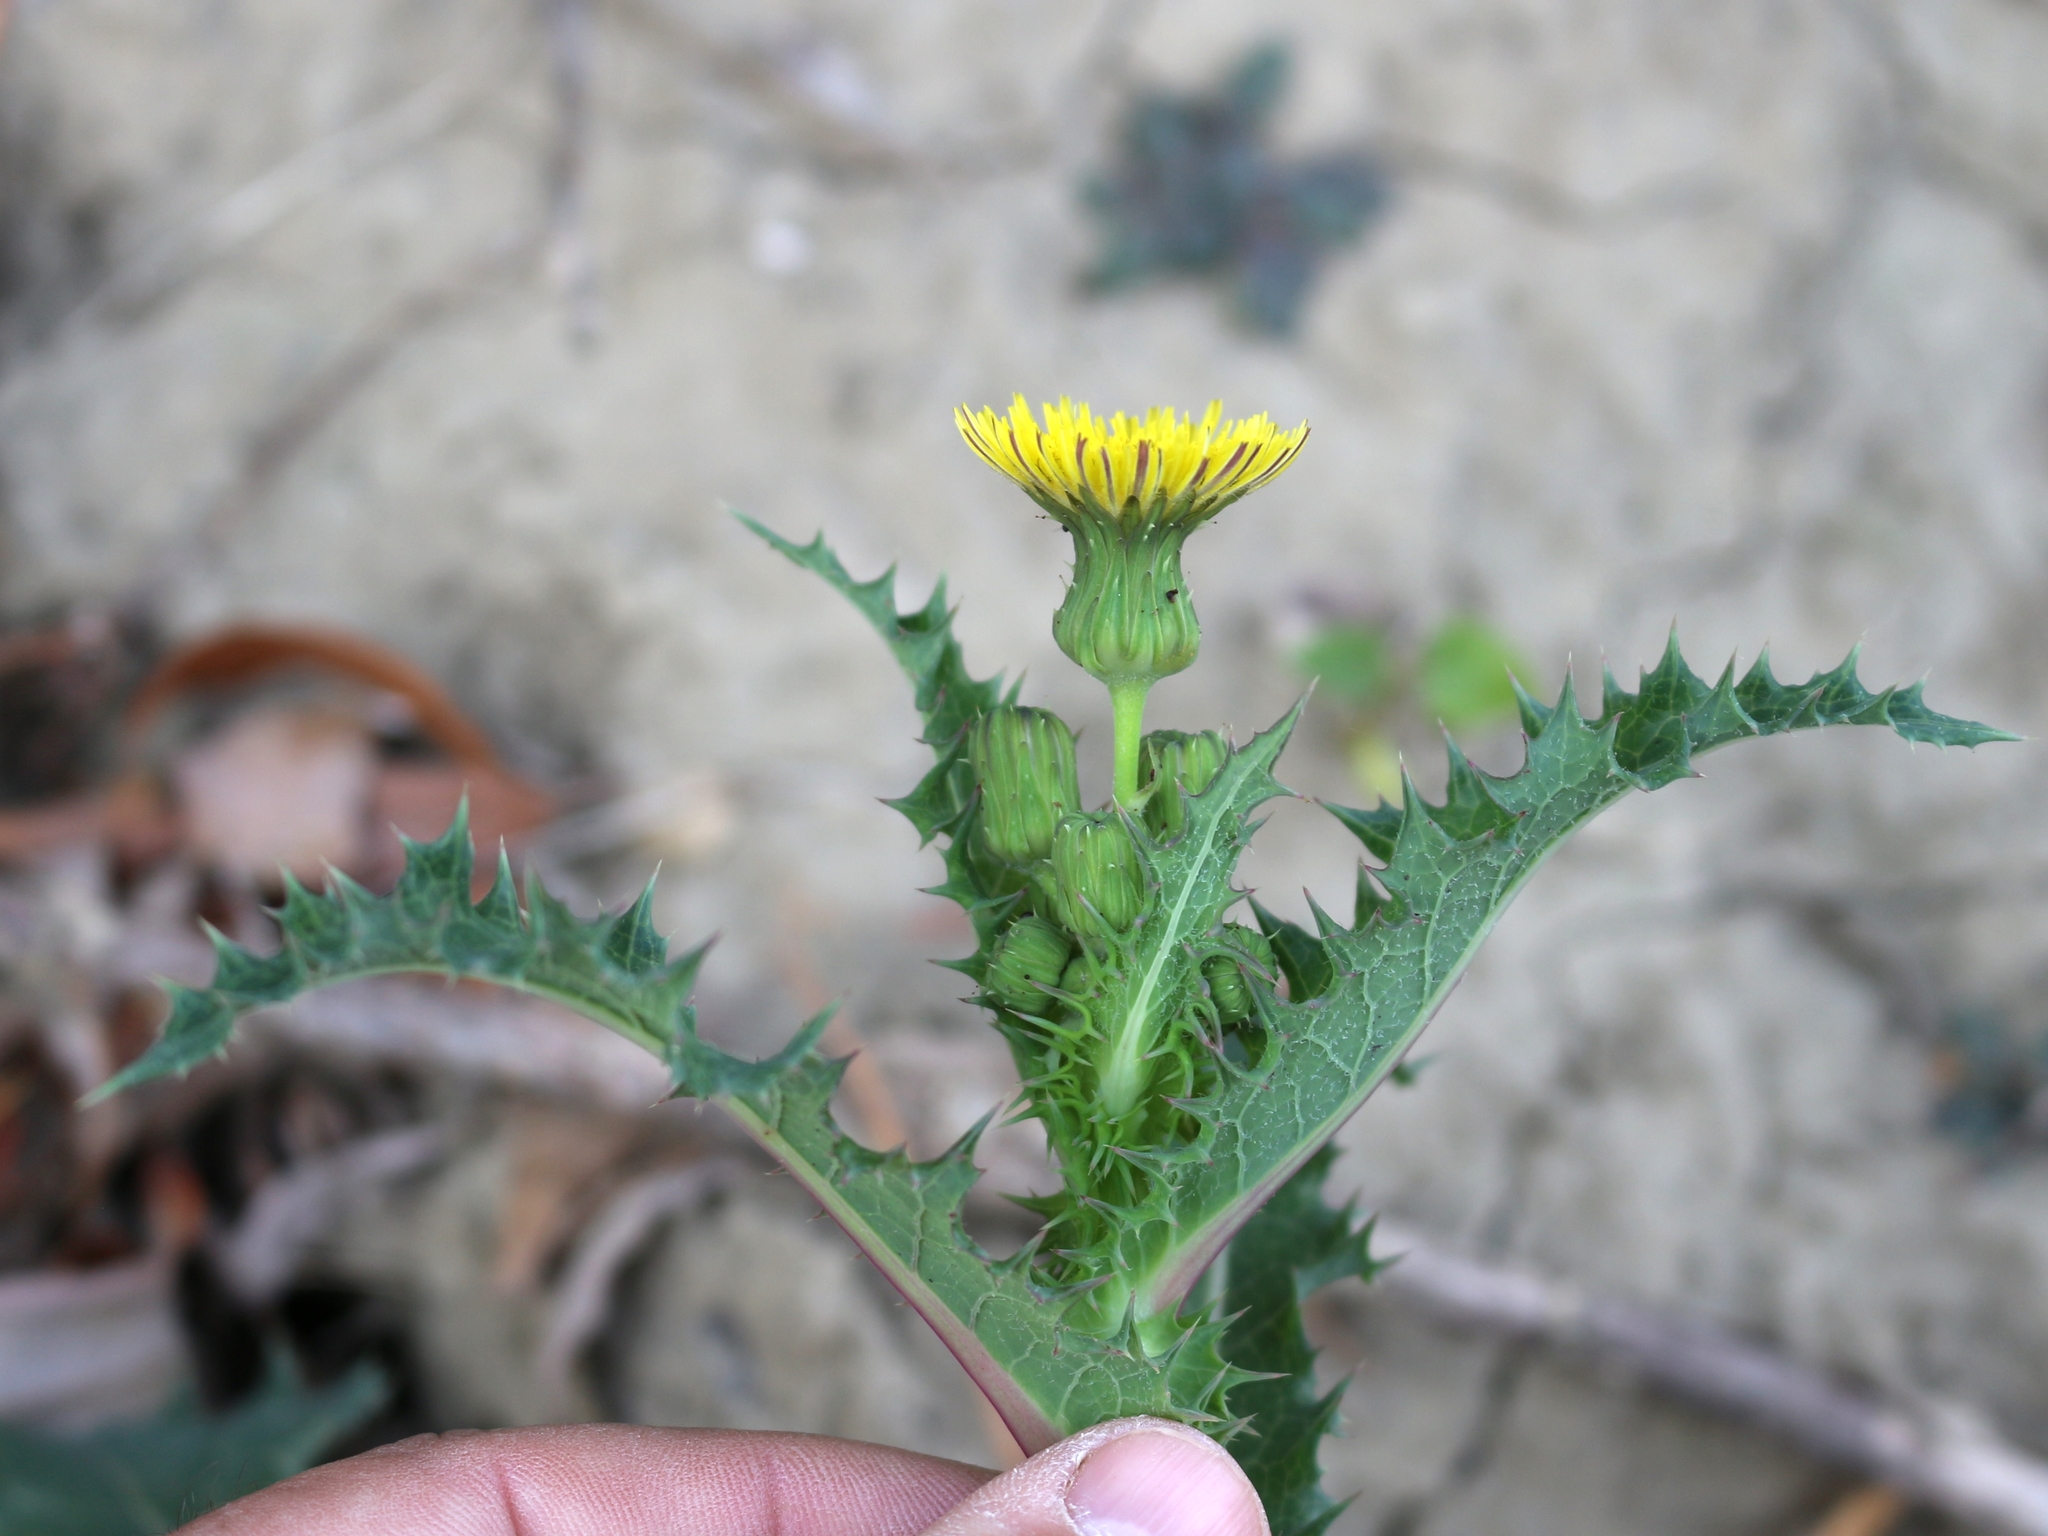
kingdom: Plantae
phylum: Tracheophyta
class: Magnoliopsida
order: Asterales
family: Asteraceae
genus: Sonchus
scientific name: Sonchus asper
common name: Prickly sow-thistle
